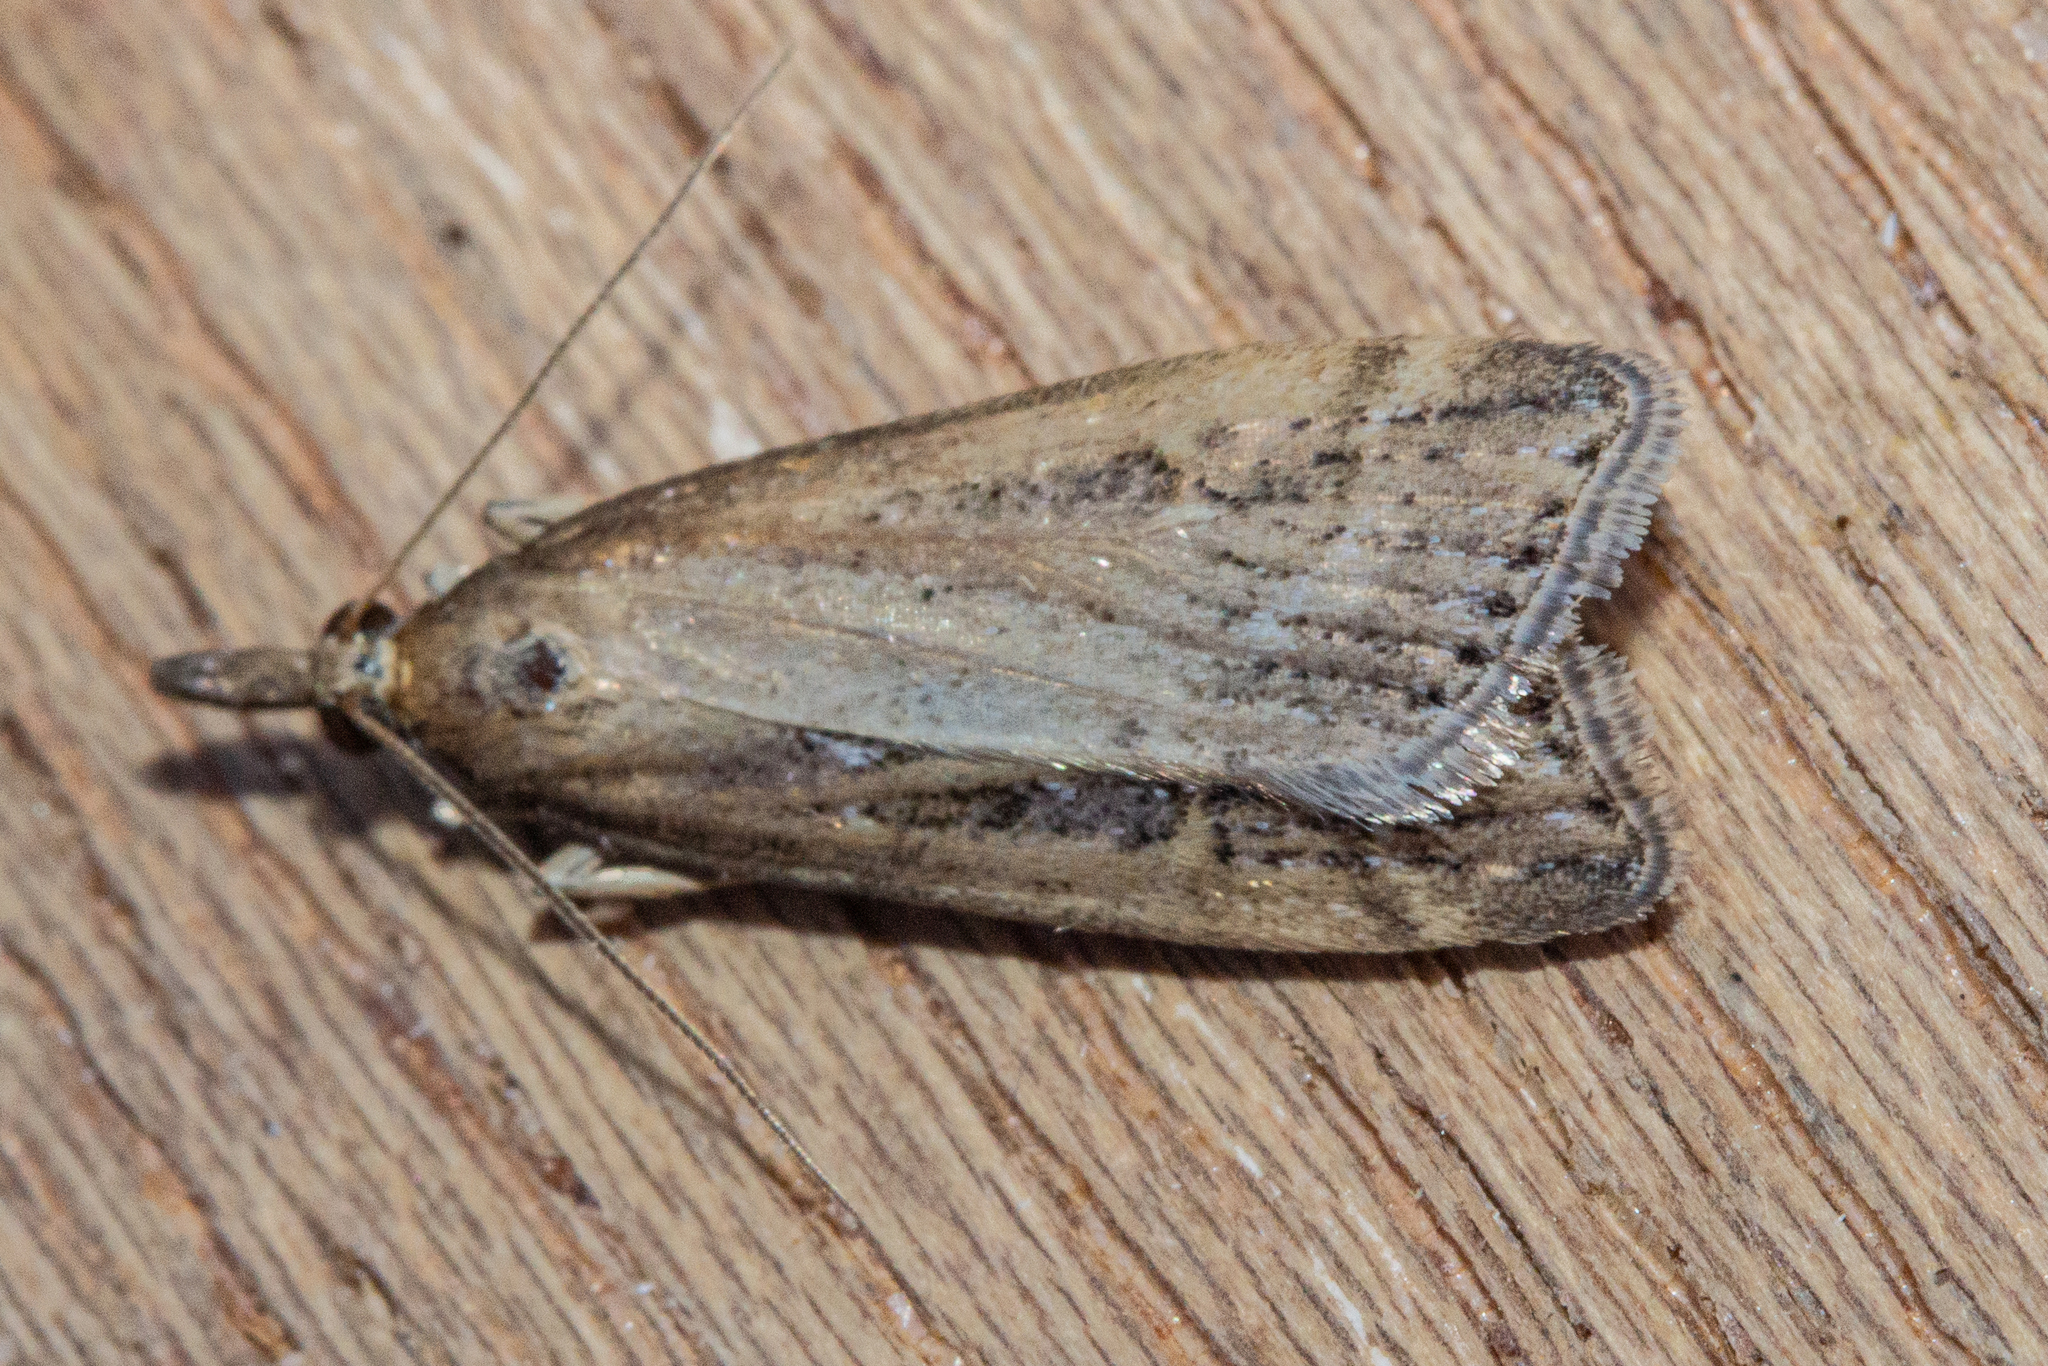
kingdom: Animalia
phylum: Arthropoda
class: Insecta
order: Lepidoptera
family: Crambidae
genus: Eudonia
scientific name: Eudonia octophora
